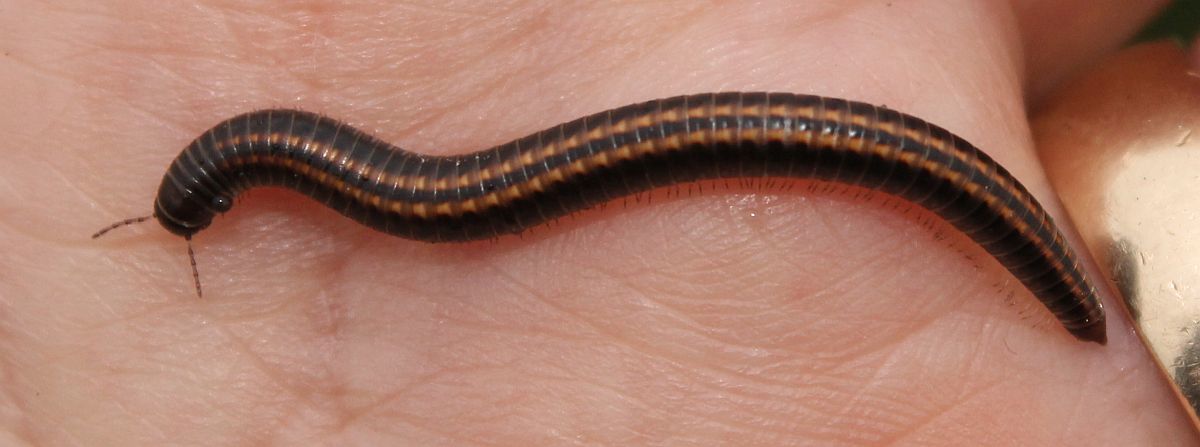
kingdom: Animalia
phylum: Arthropoda
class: Diplopoda
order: Julida
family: Julidae
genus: Ommatoiulus
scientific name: Ommatoiulus sabulosus
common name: Striped millipede
